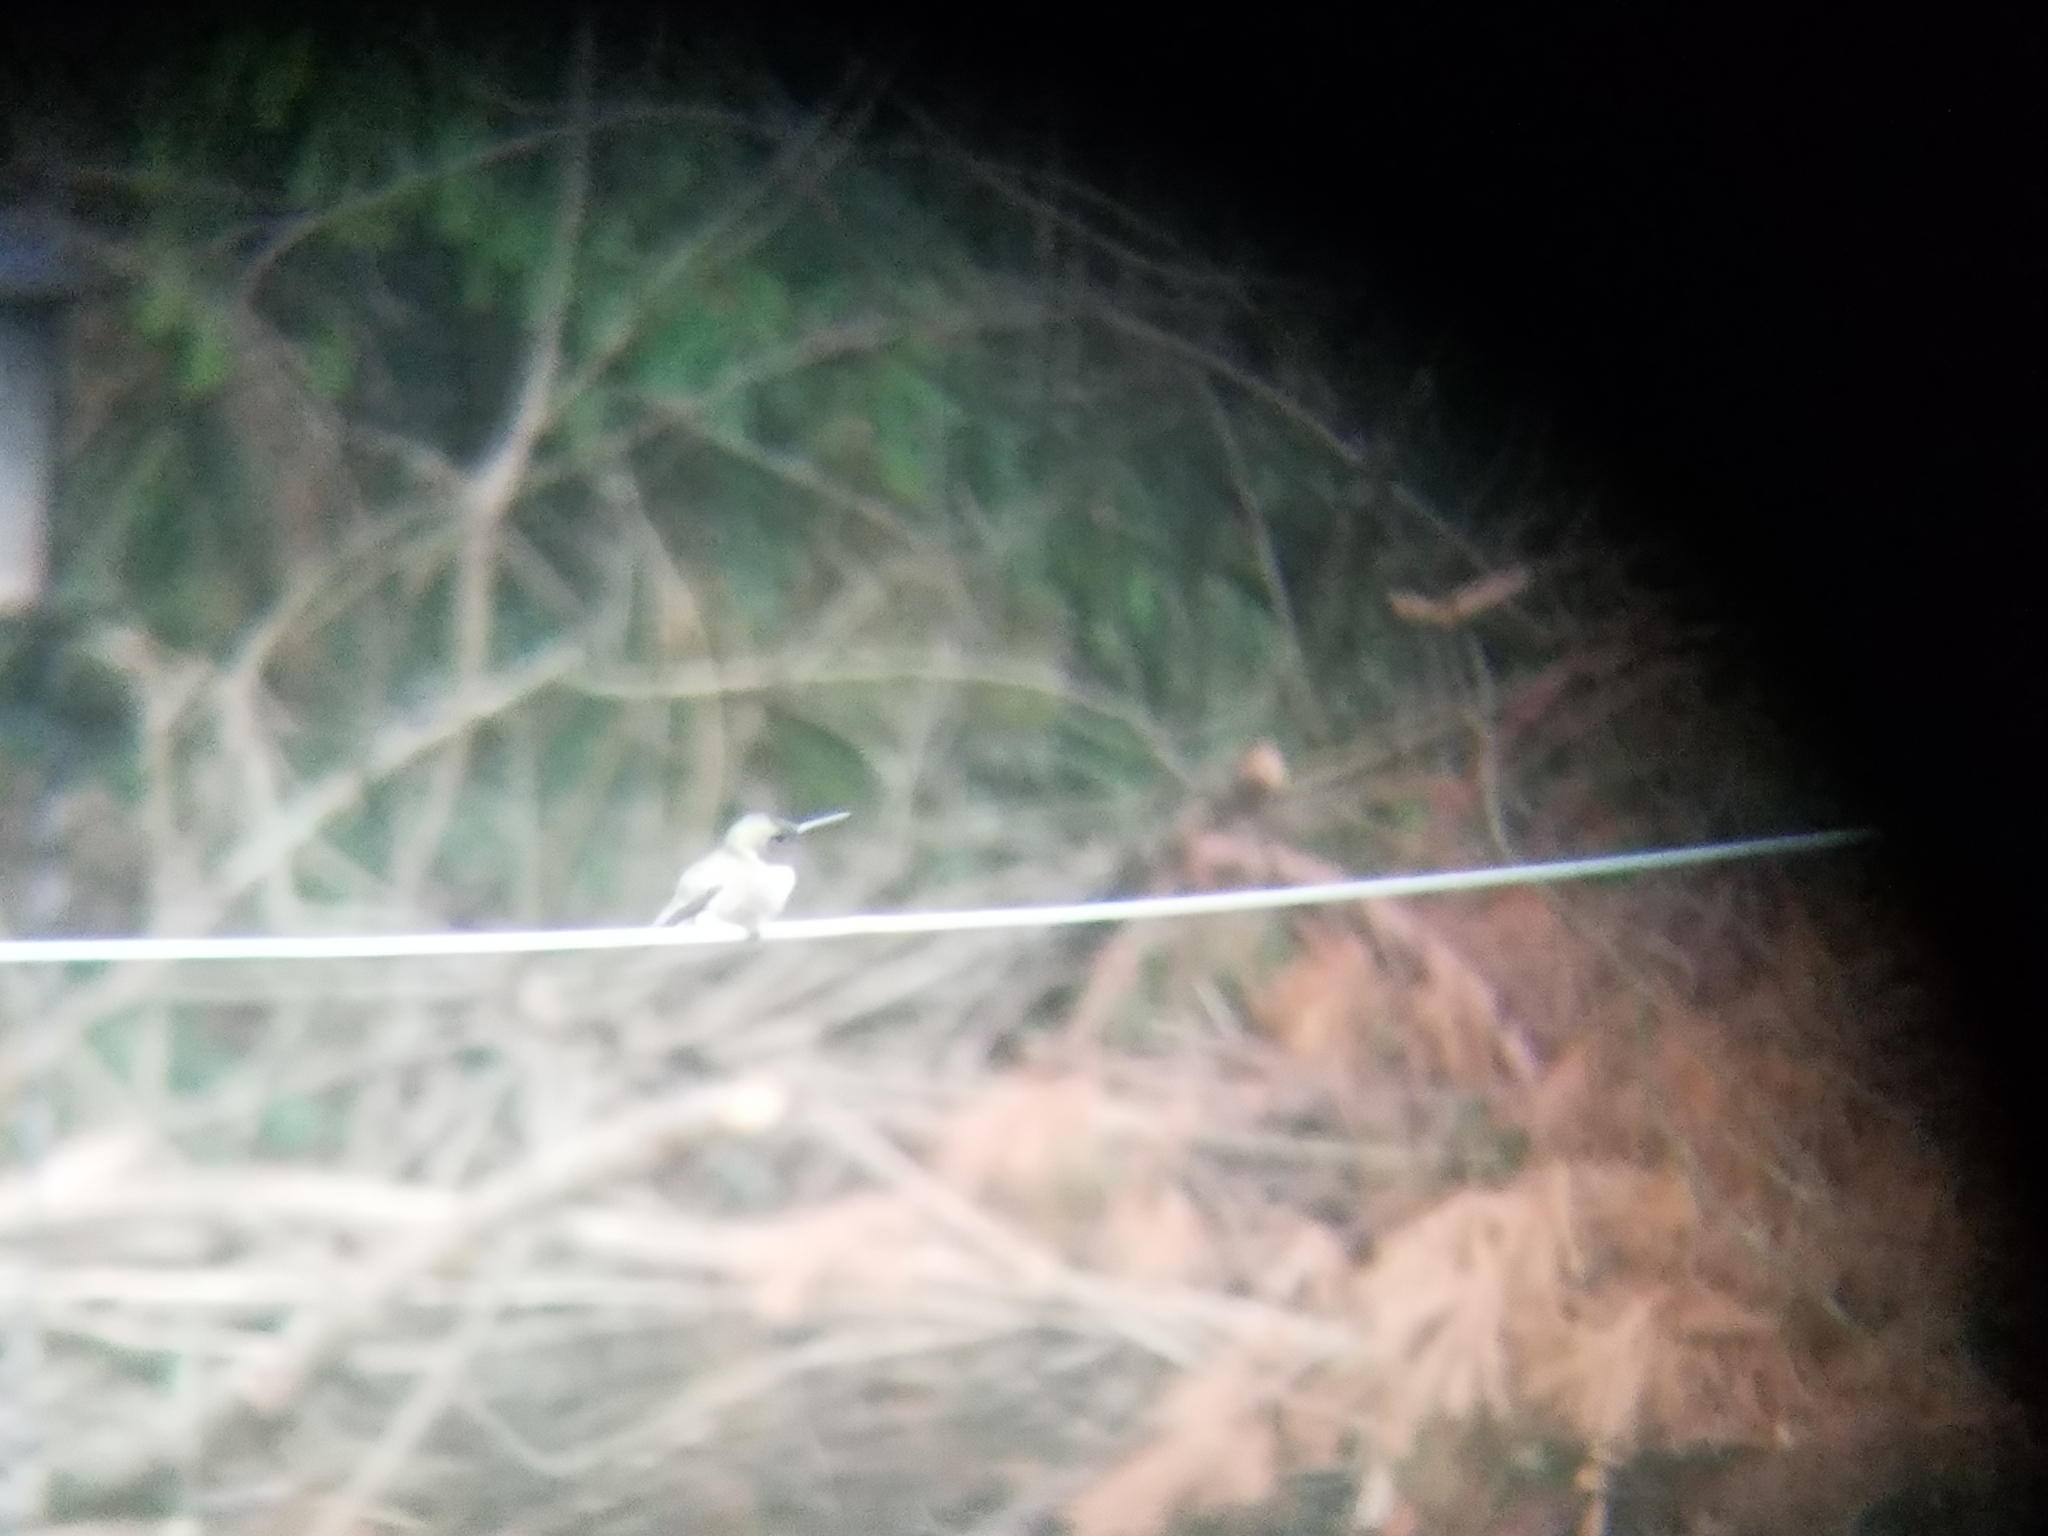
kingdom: Animalia
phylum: Chordata
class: Aves
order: Apodiformes
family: Trochilidae
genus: Archilochus
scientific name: Archilochus colubris
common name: Ruby-throated hummingbird
